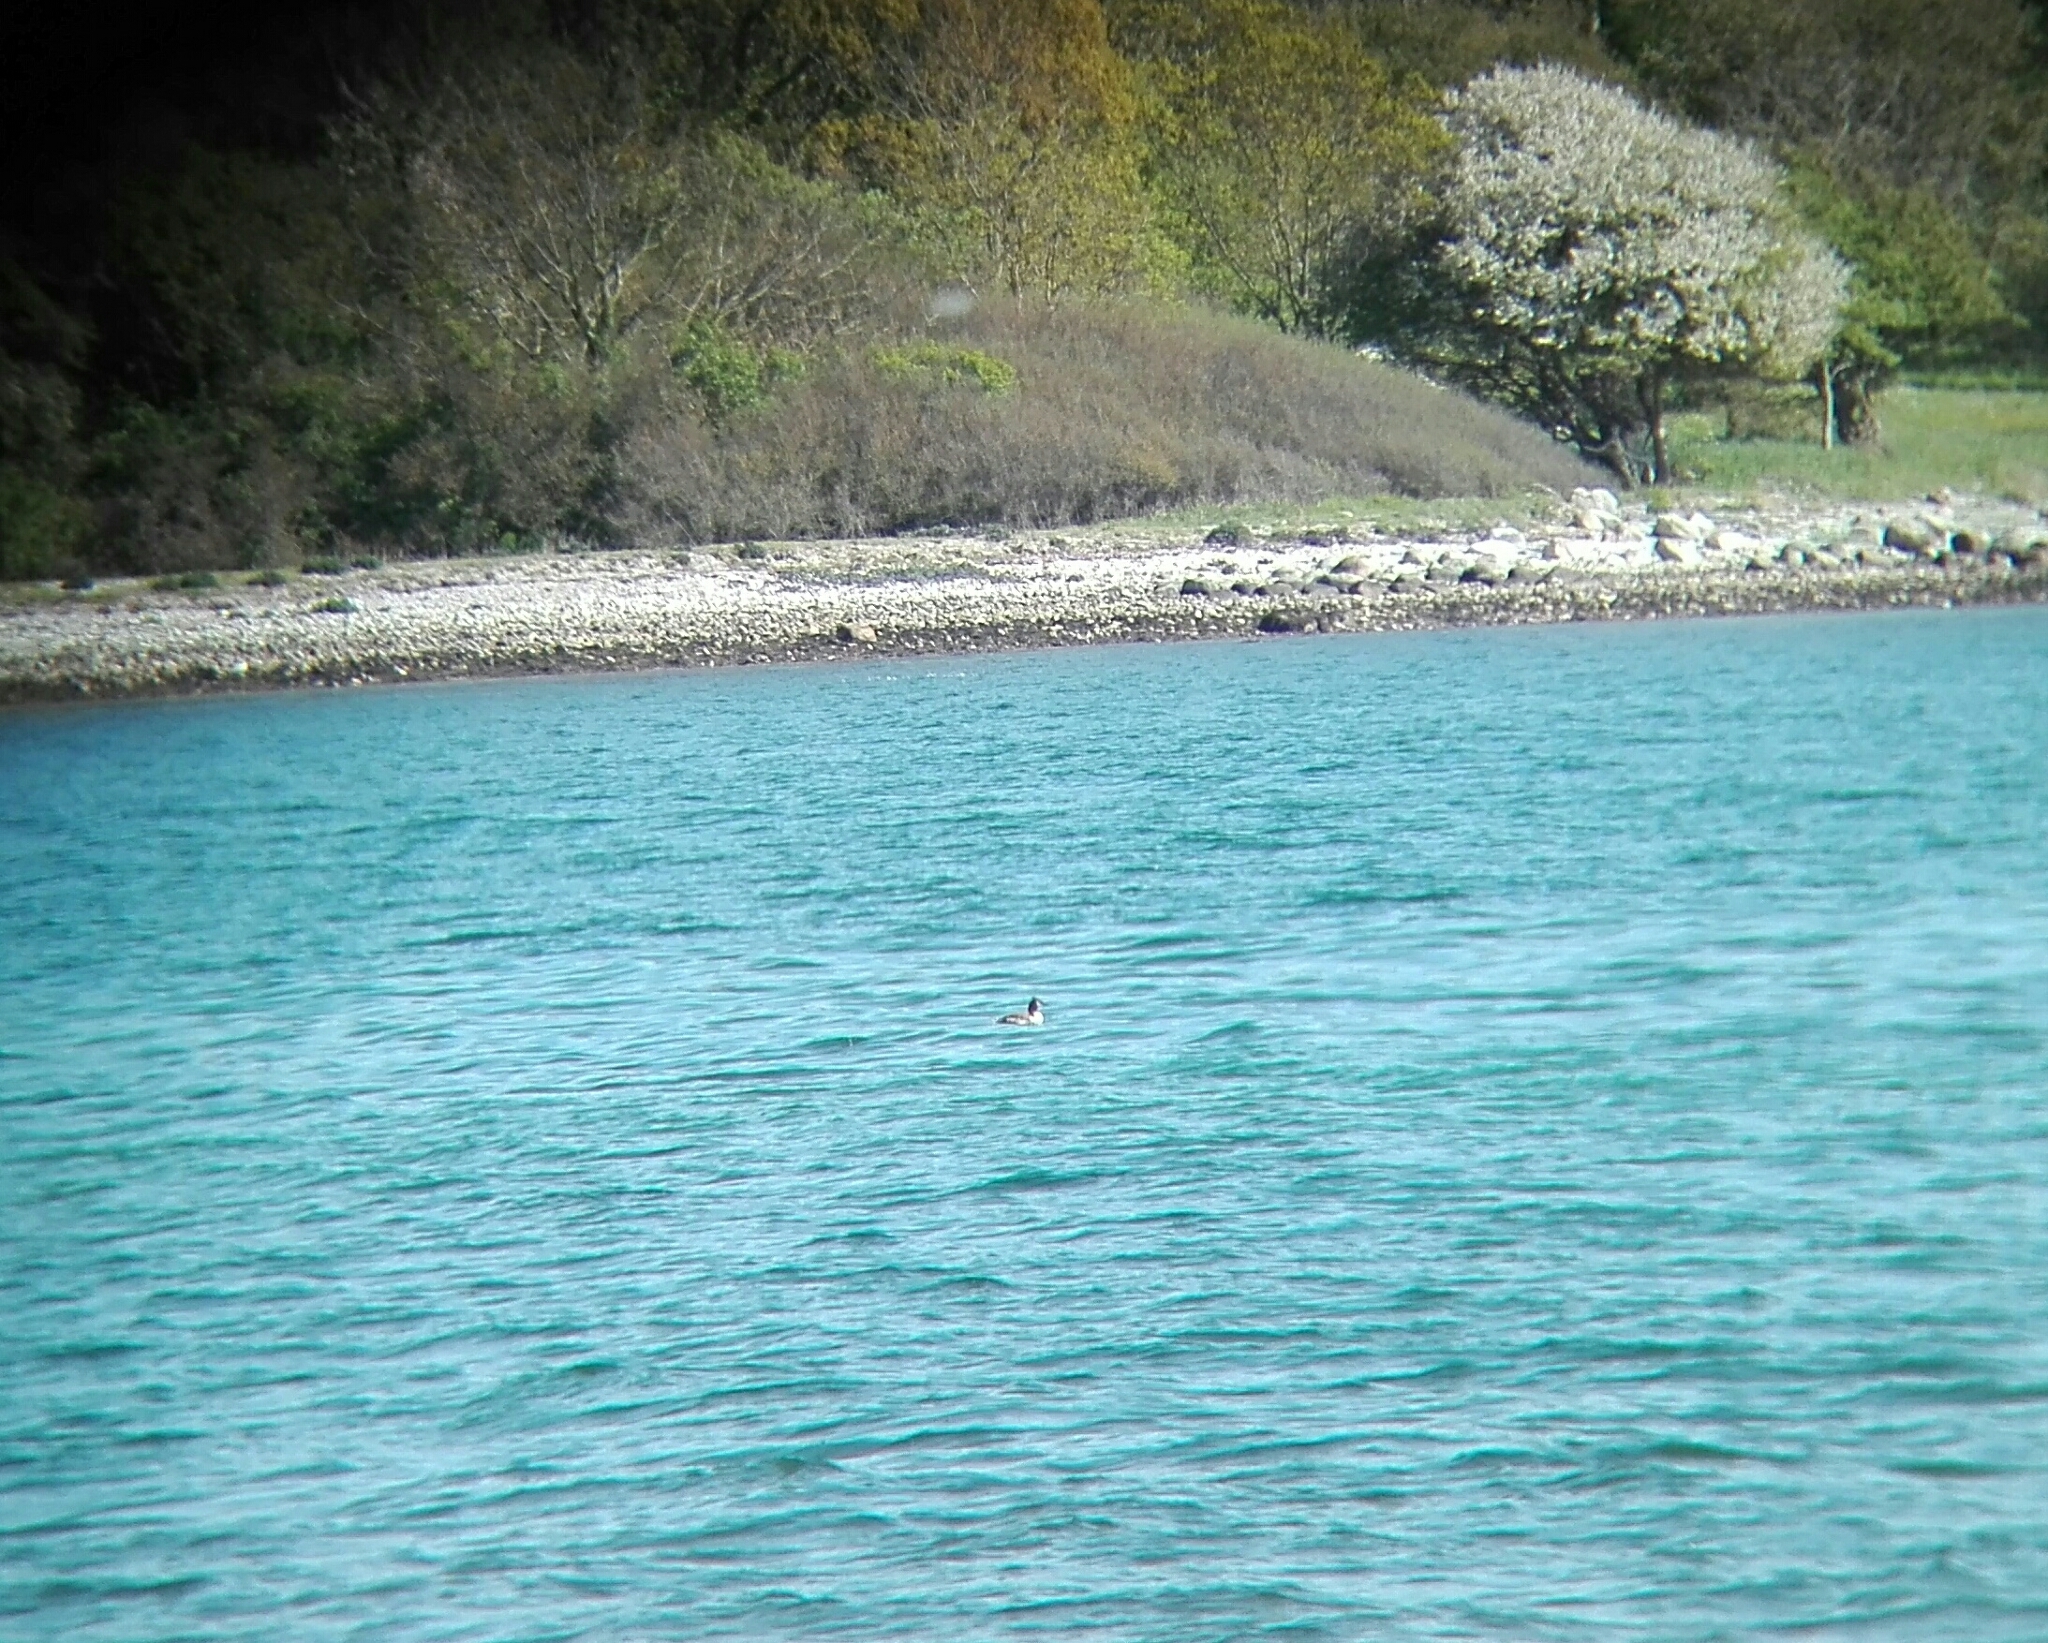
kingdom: Animalia
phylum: Chordata
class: Aves
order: Podicipediformes
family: Podicipedidae
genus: Podiceps
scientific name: Podiceps cristatus
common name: Great crested grebe
